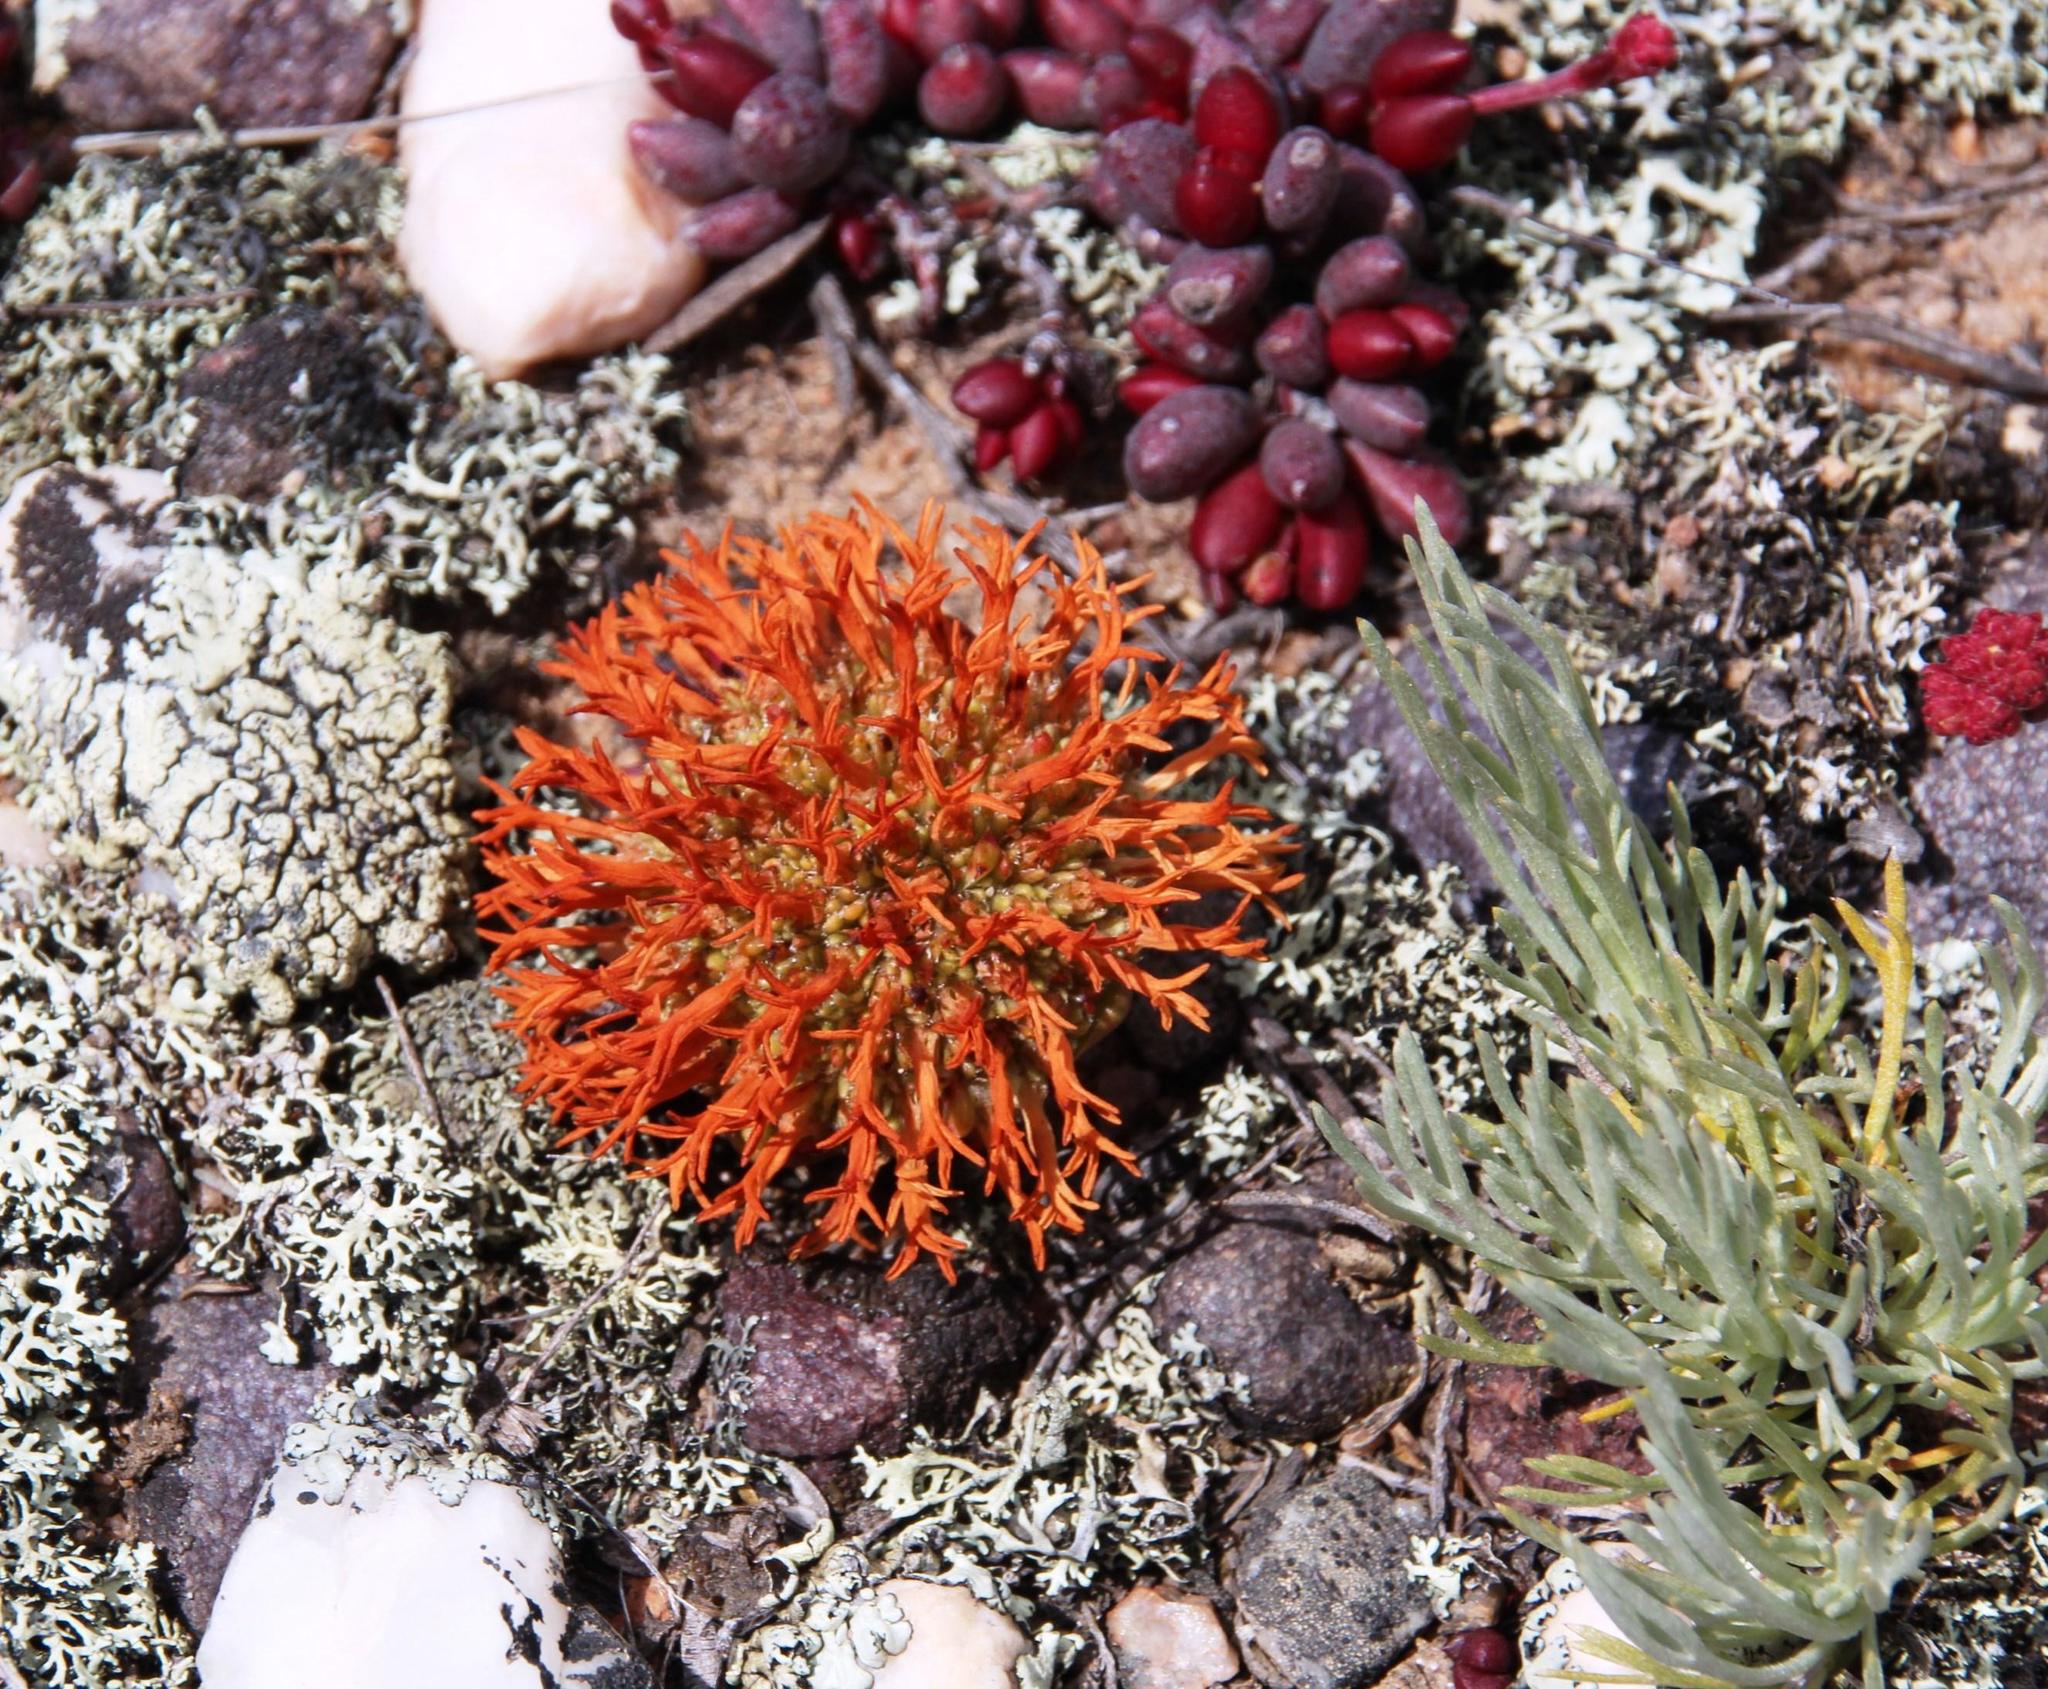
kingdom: Plantae
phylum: Tracheophyta
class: Magnoliopsida
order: Saxifragales
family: Crassulaceae
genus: Crassula
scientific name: Crassula columnaris
